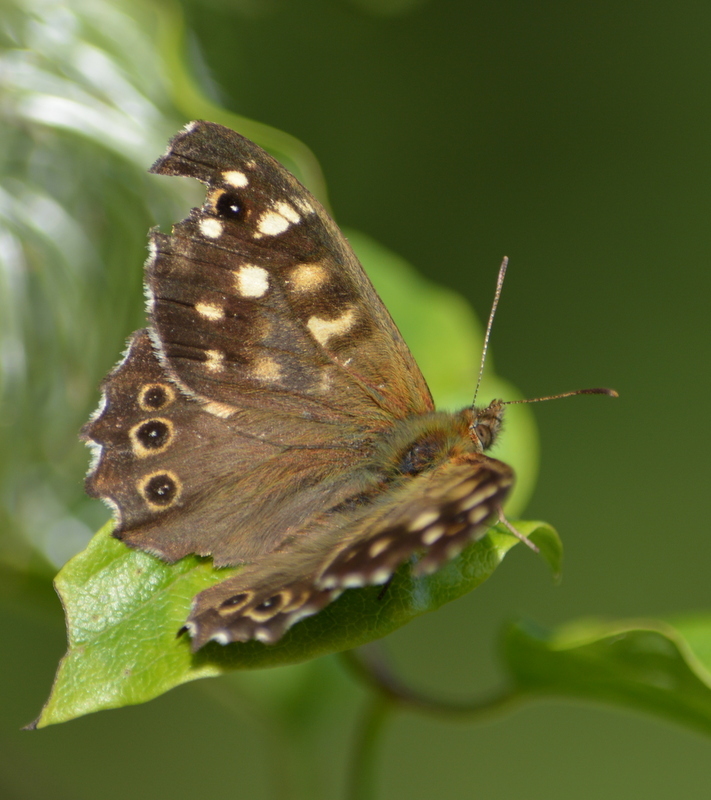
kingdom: Animalia
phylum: Arthropoda
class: Insecta
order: Lepidoptera
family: Nymphalidae
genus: Pararge
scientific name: Pararge aegeria
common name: Speckled wood
